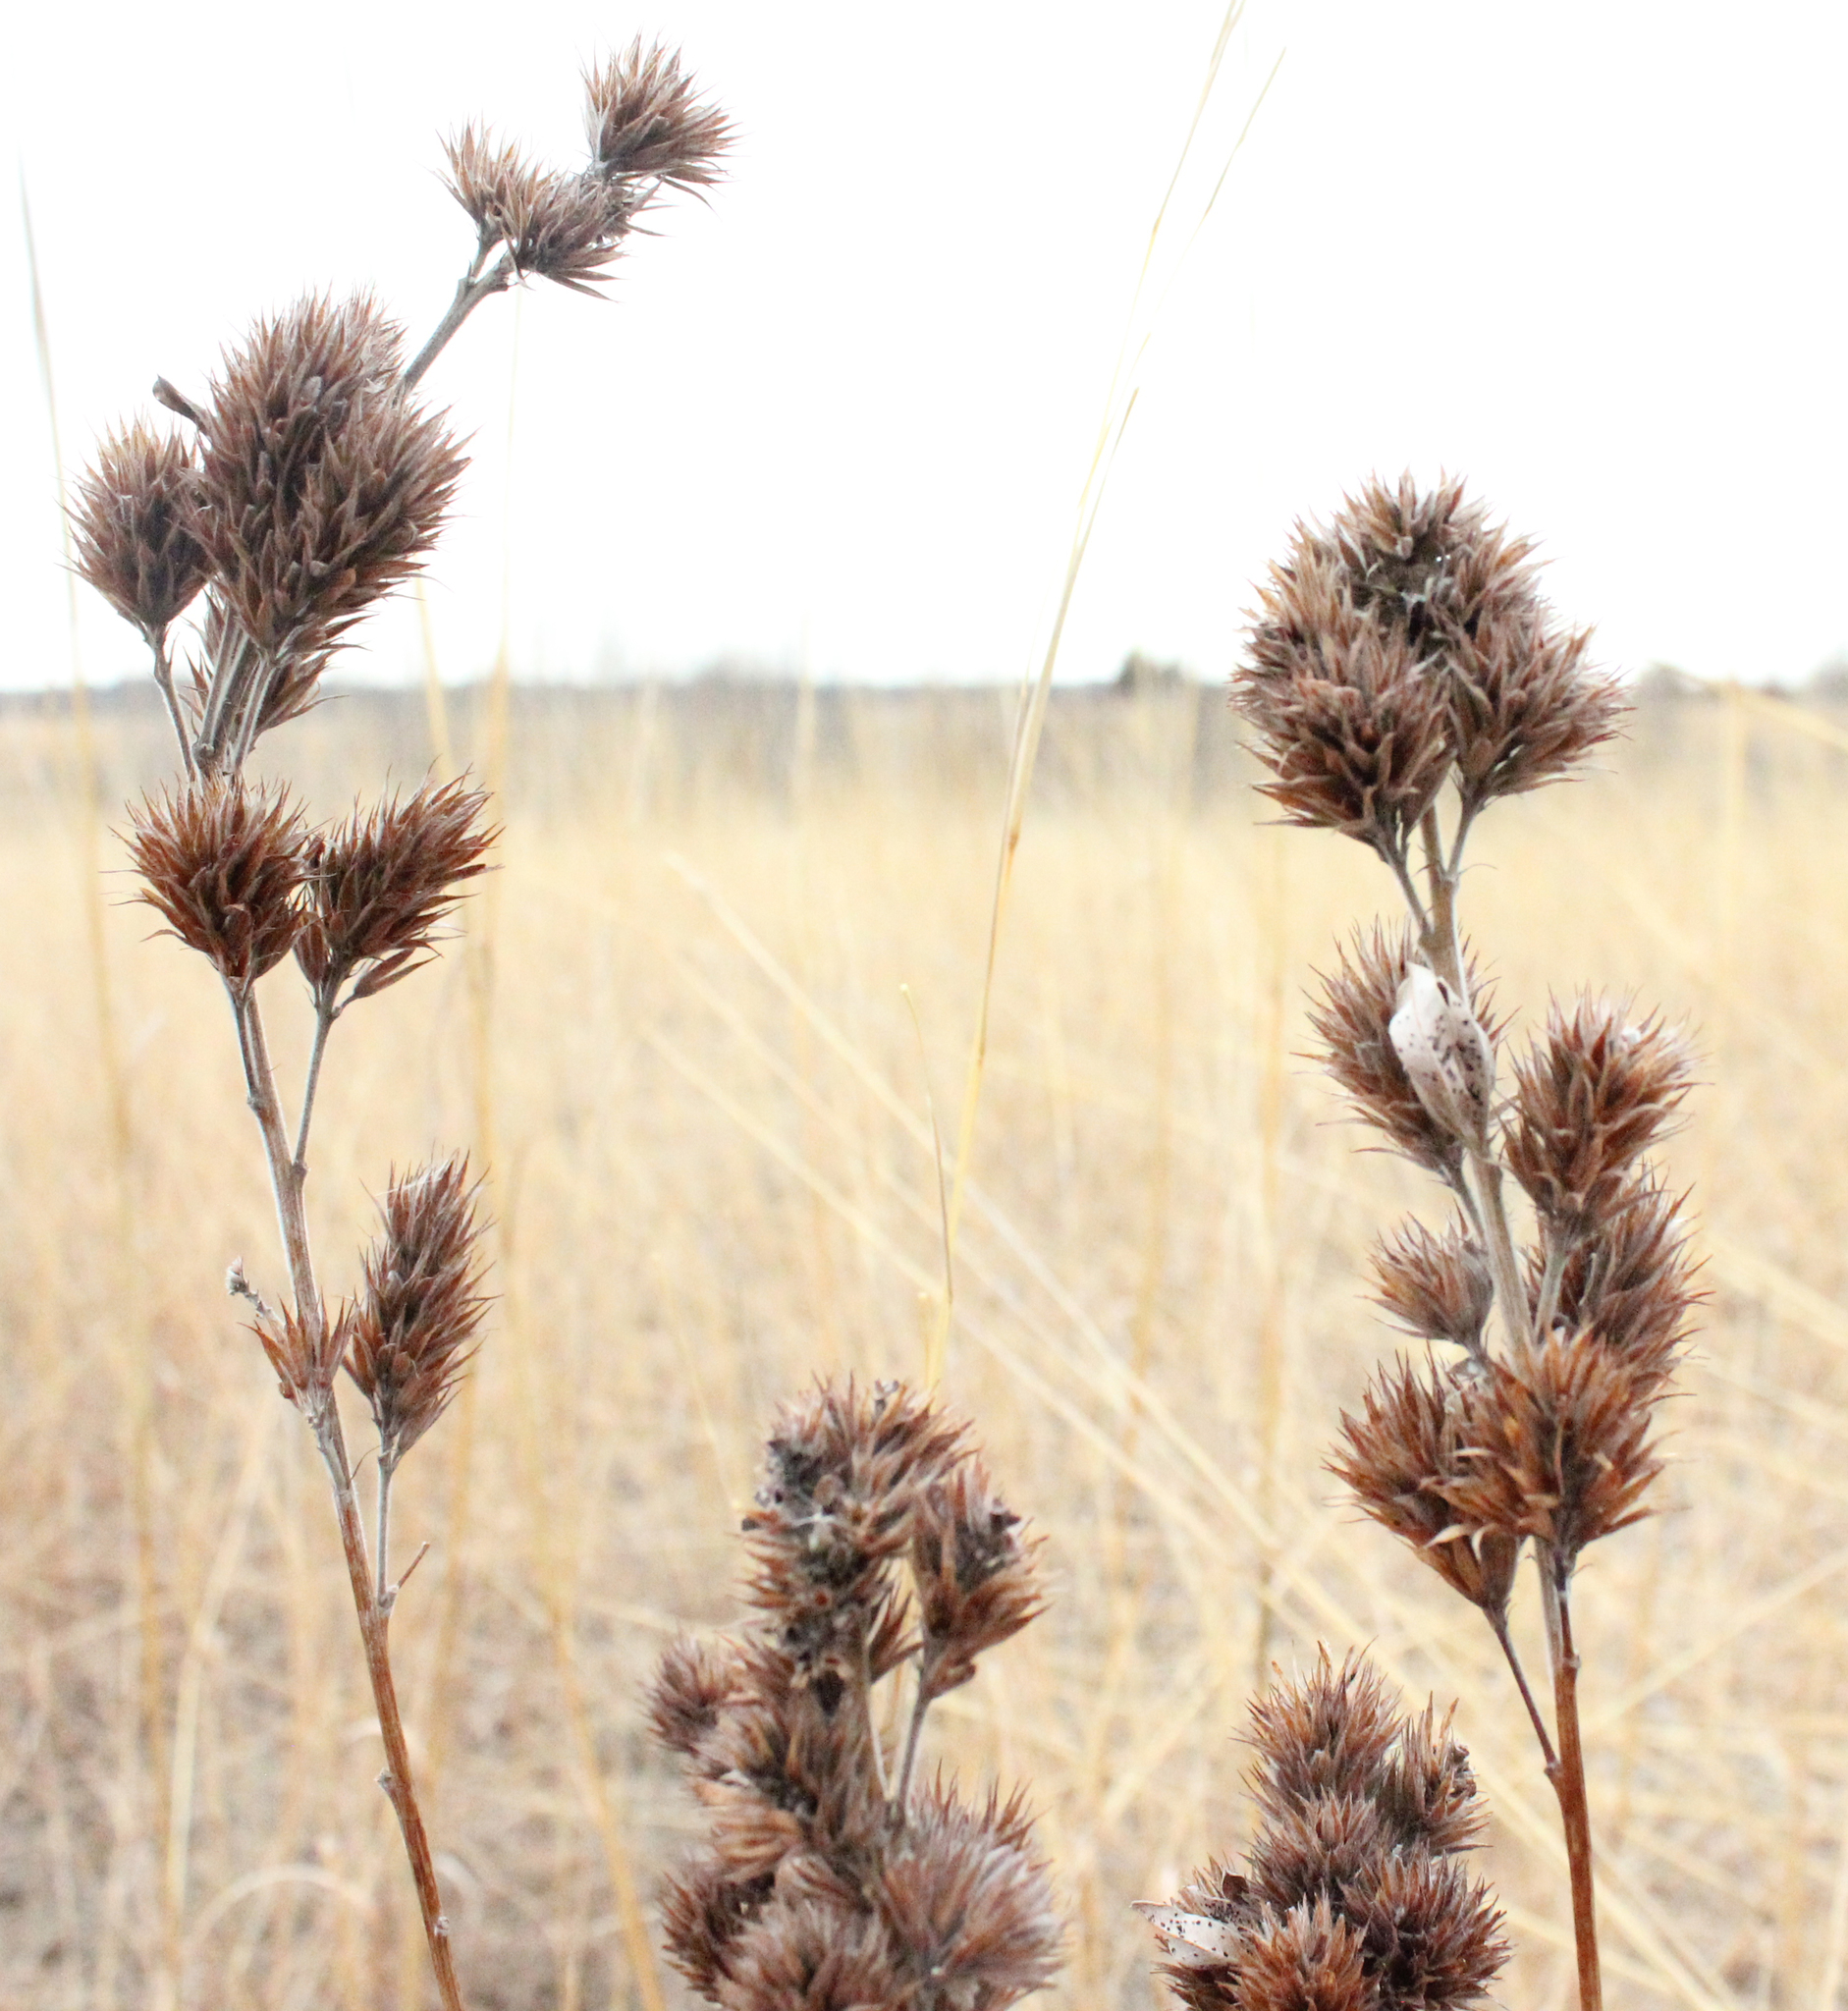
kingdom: Plantae
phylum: Tracheophyta
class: Magnoliopsida
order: Fabales
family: Fabaceae
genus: Lespedeza
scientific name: Lespedeza capitata
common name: Dusty clover
